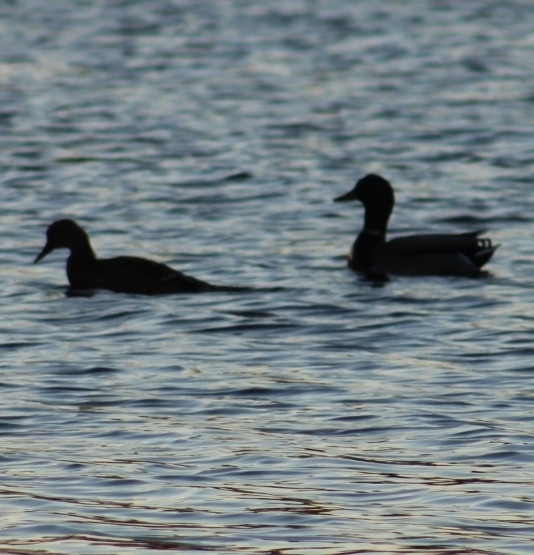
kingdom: Animalia
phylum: Chordata
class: Aves
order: Anseriformes
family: Anatidae
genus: Anas
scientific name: Anas platyrhynchos
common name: Mallard
